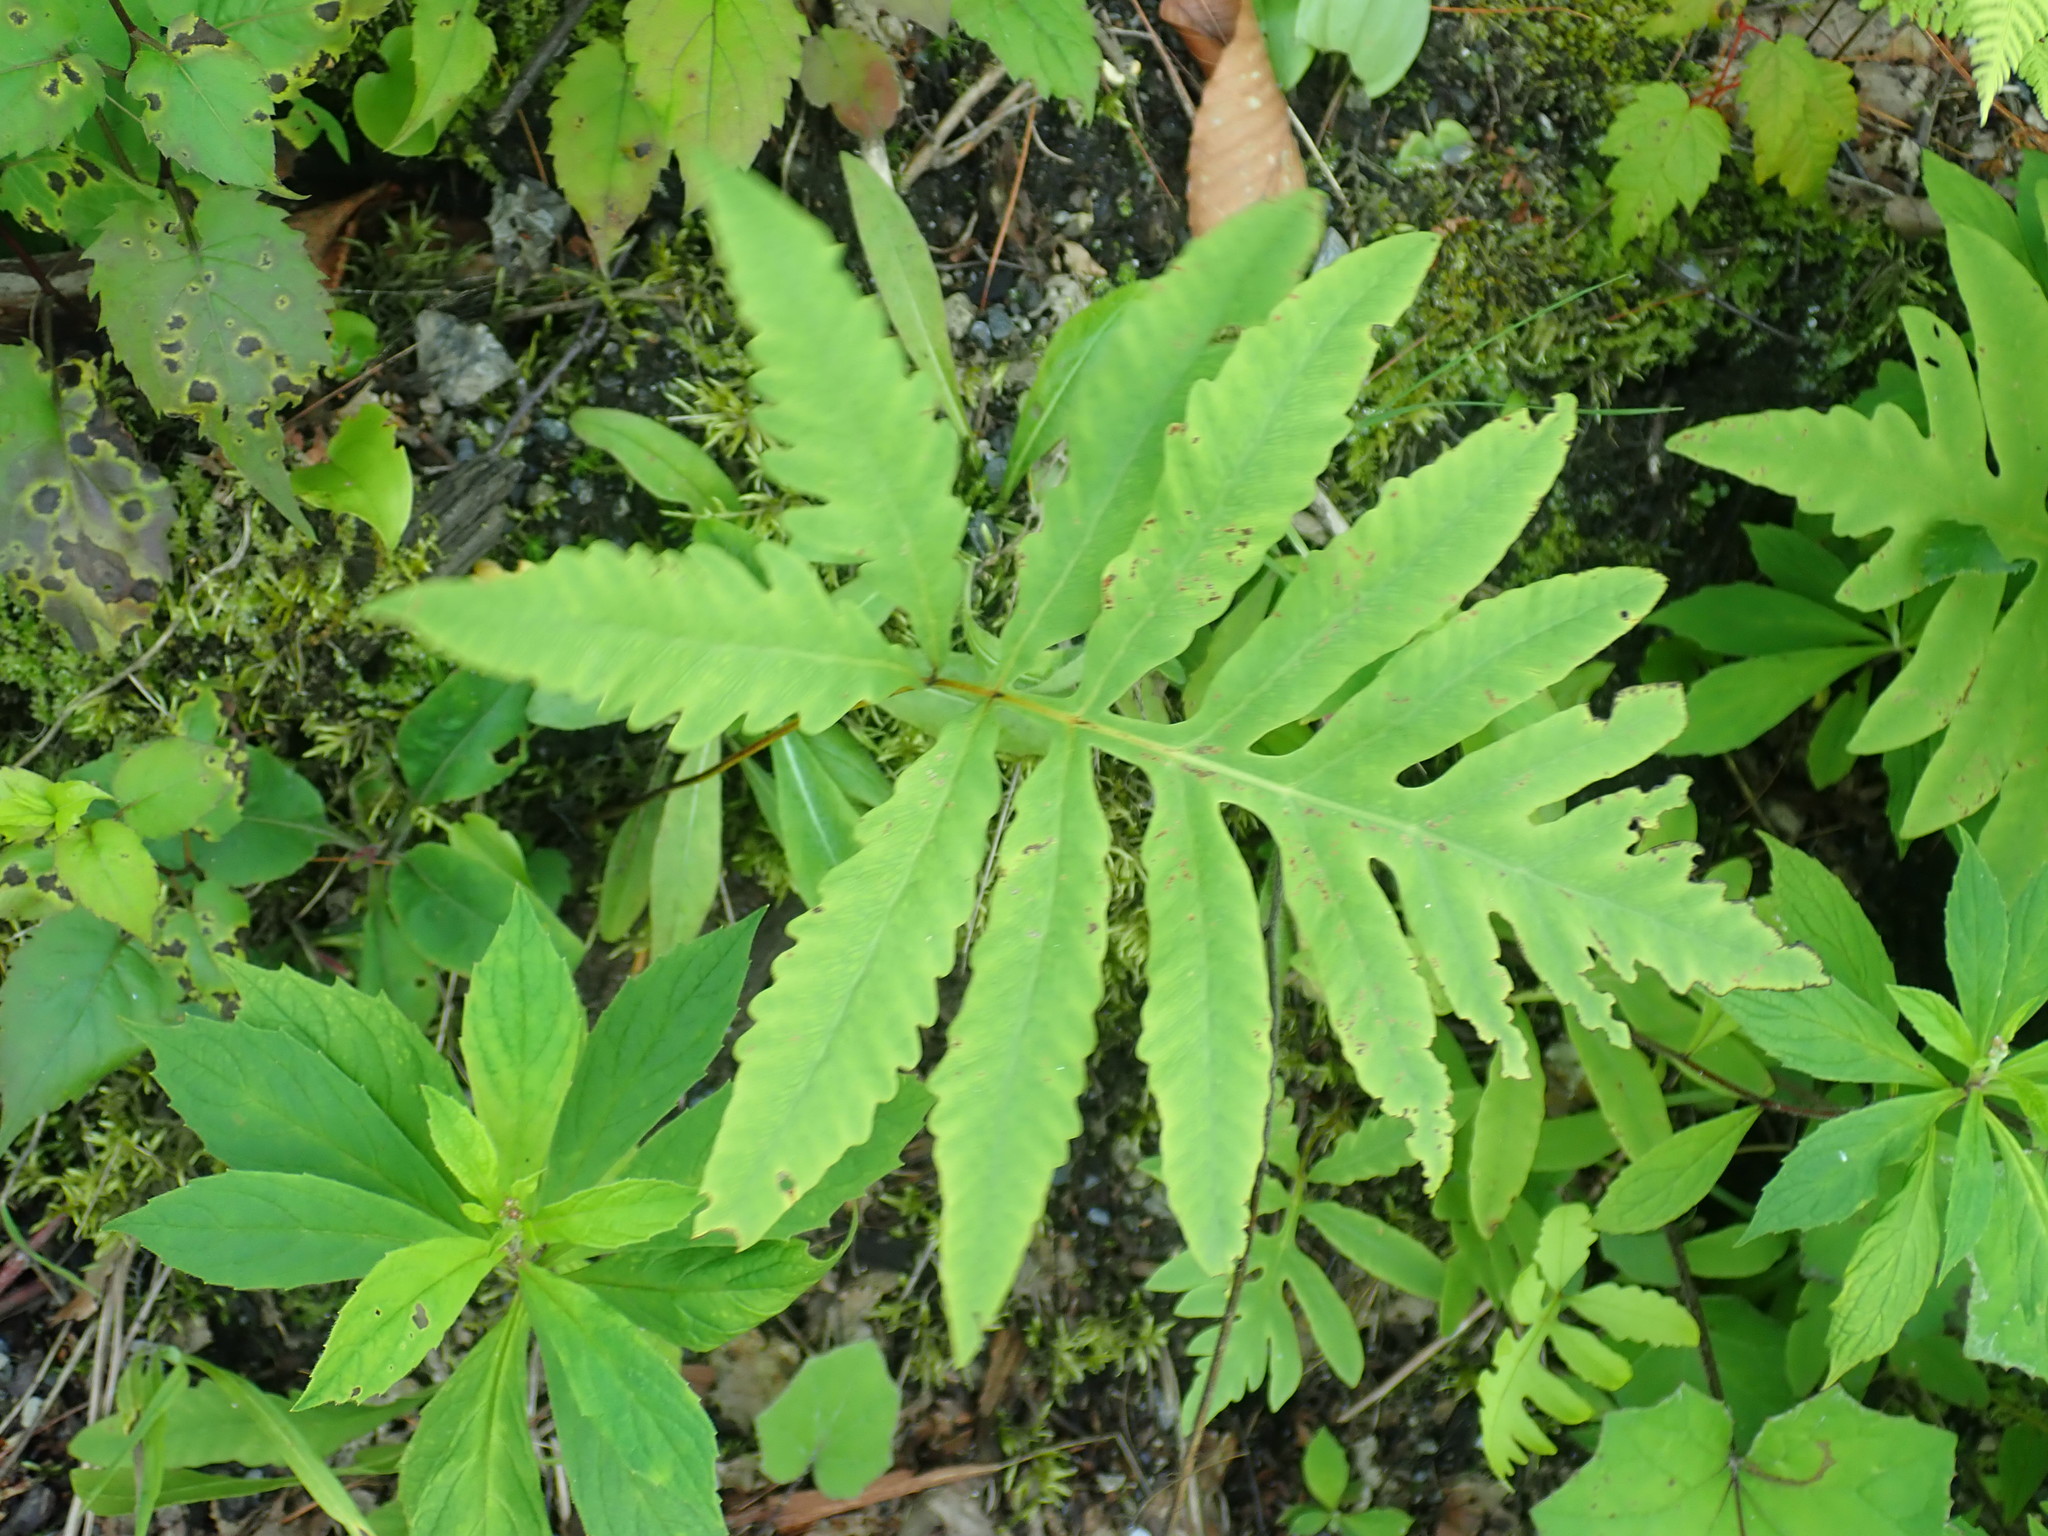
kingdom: Plantae
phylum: Tracheophyta
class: Polypodiopsida
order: Polypodiales
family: Onocleaceae
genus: Onoclea
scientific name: Onoclea sensibilis
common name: Sensitive fern
